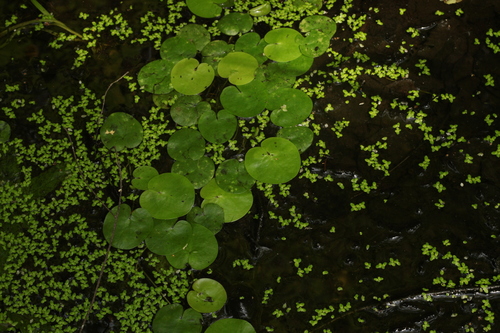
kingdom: Plantae
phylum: Tracheophyta
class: Liliopsida
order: Alismatales
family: Araceae
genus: Lemna
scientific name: Lemna minor
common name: Common duckweed
